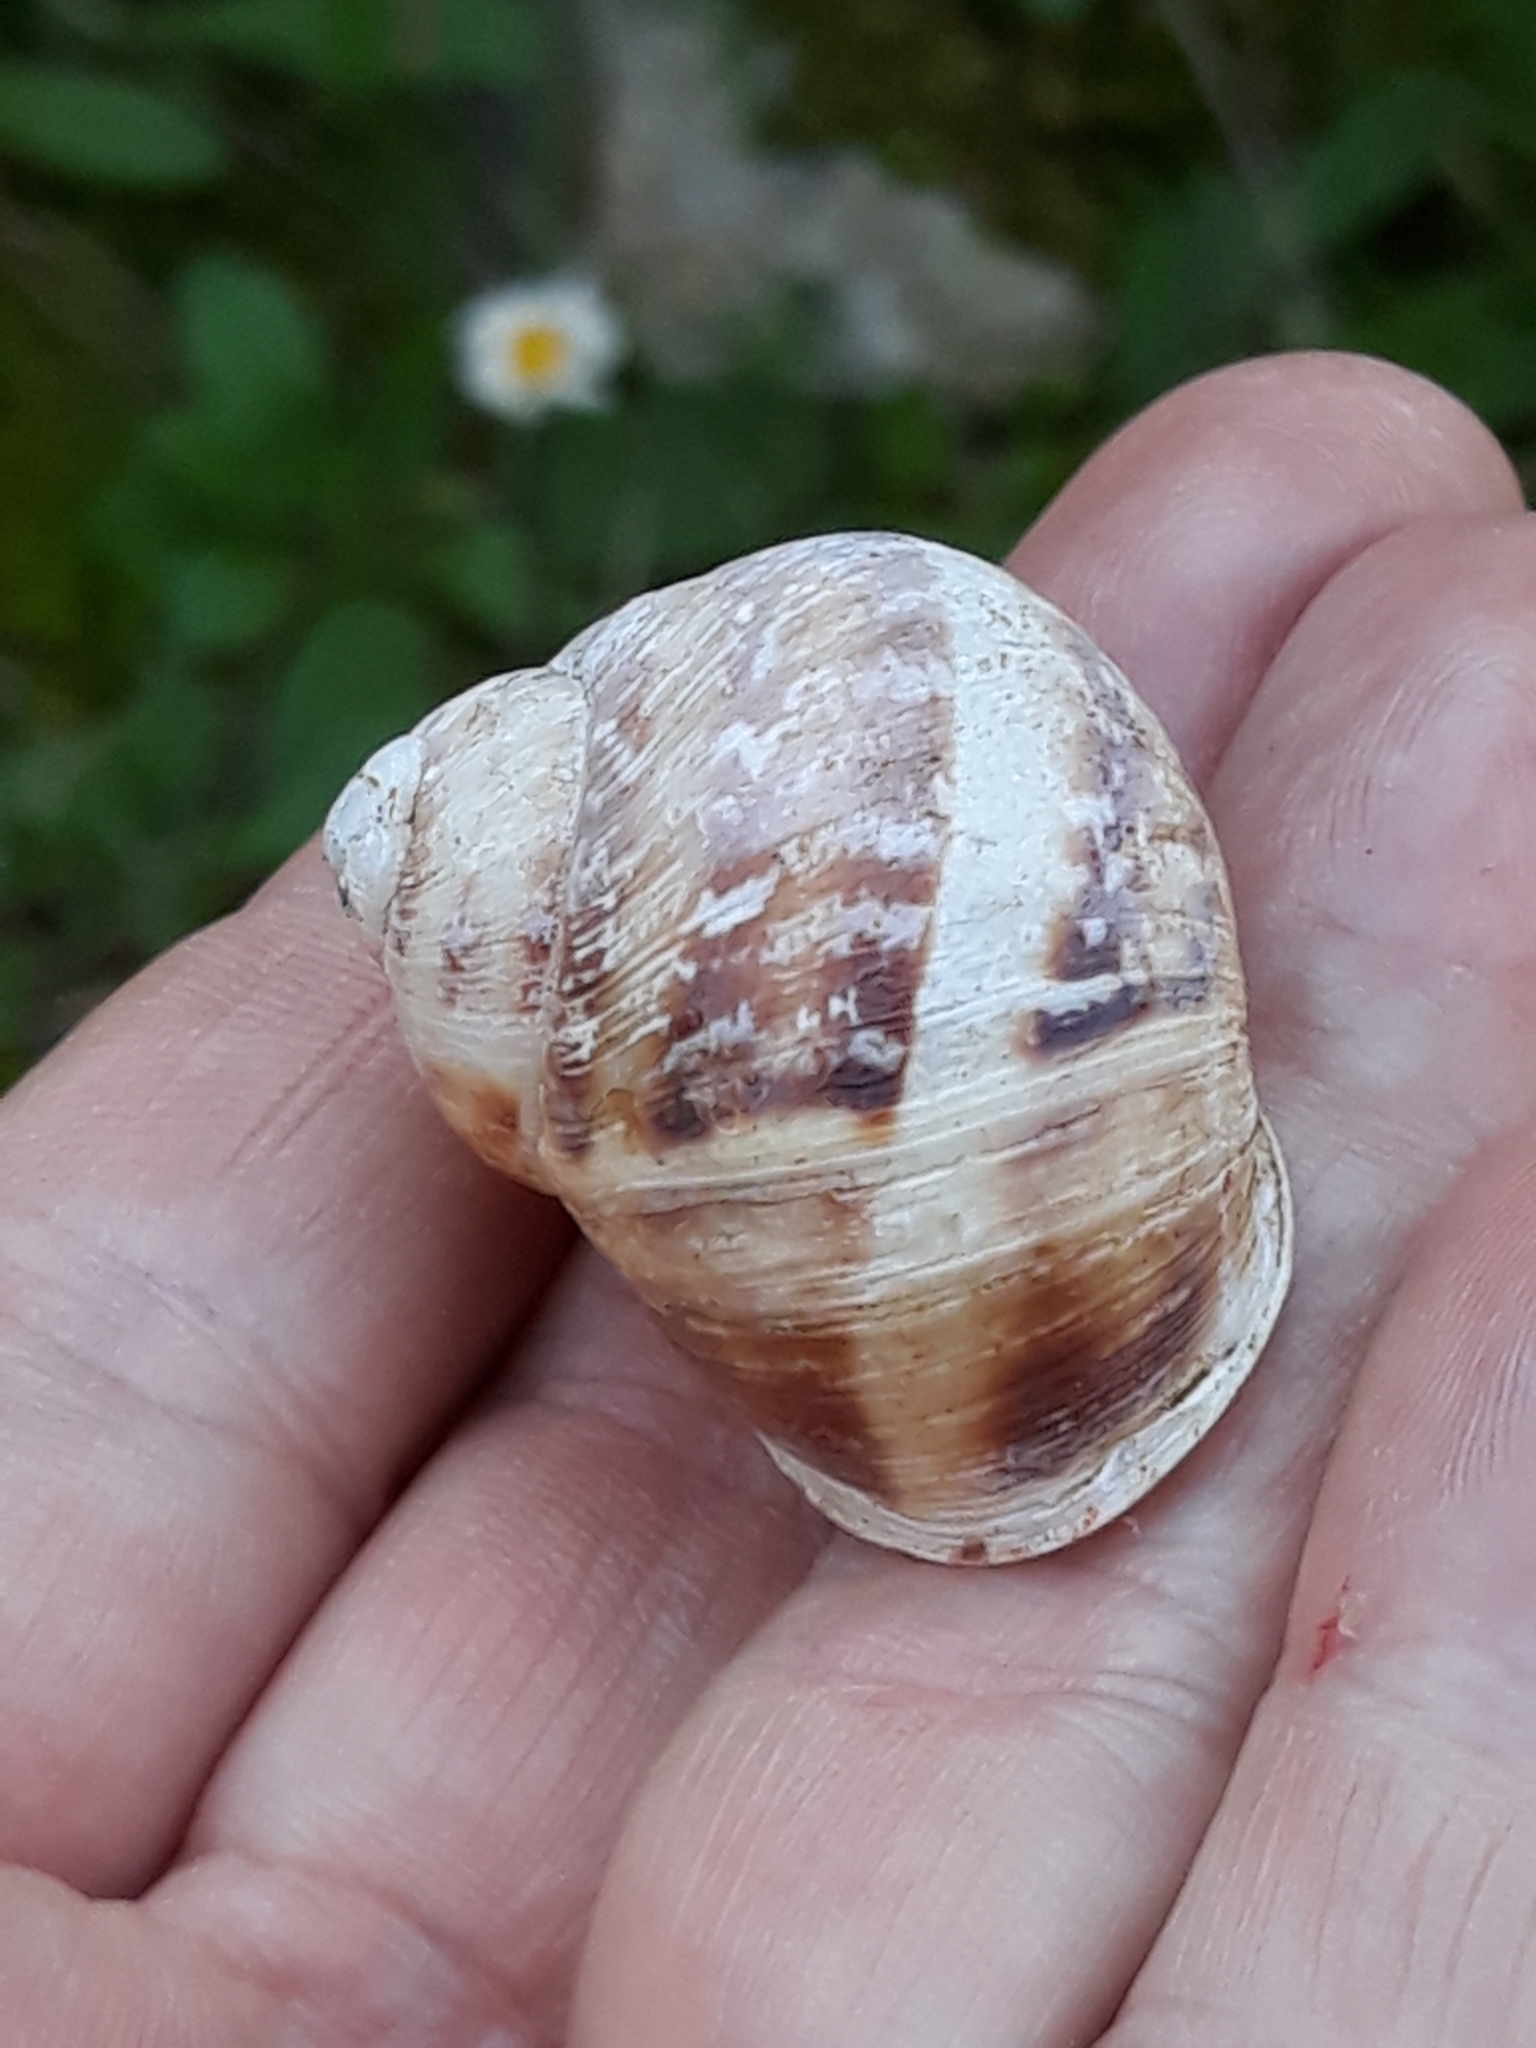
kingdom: Animalia
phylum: Mollusca
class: Gastropoda
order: Stylommatophora
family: Helicidae
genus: Cornu
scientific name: Cornu aspersum
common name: Brown garden snail
